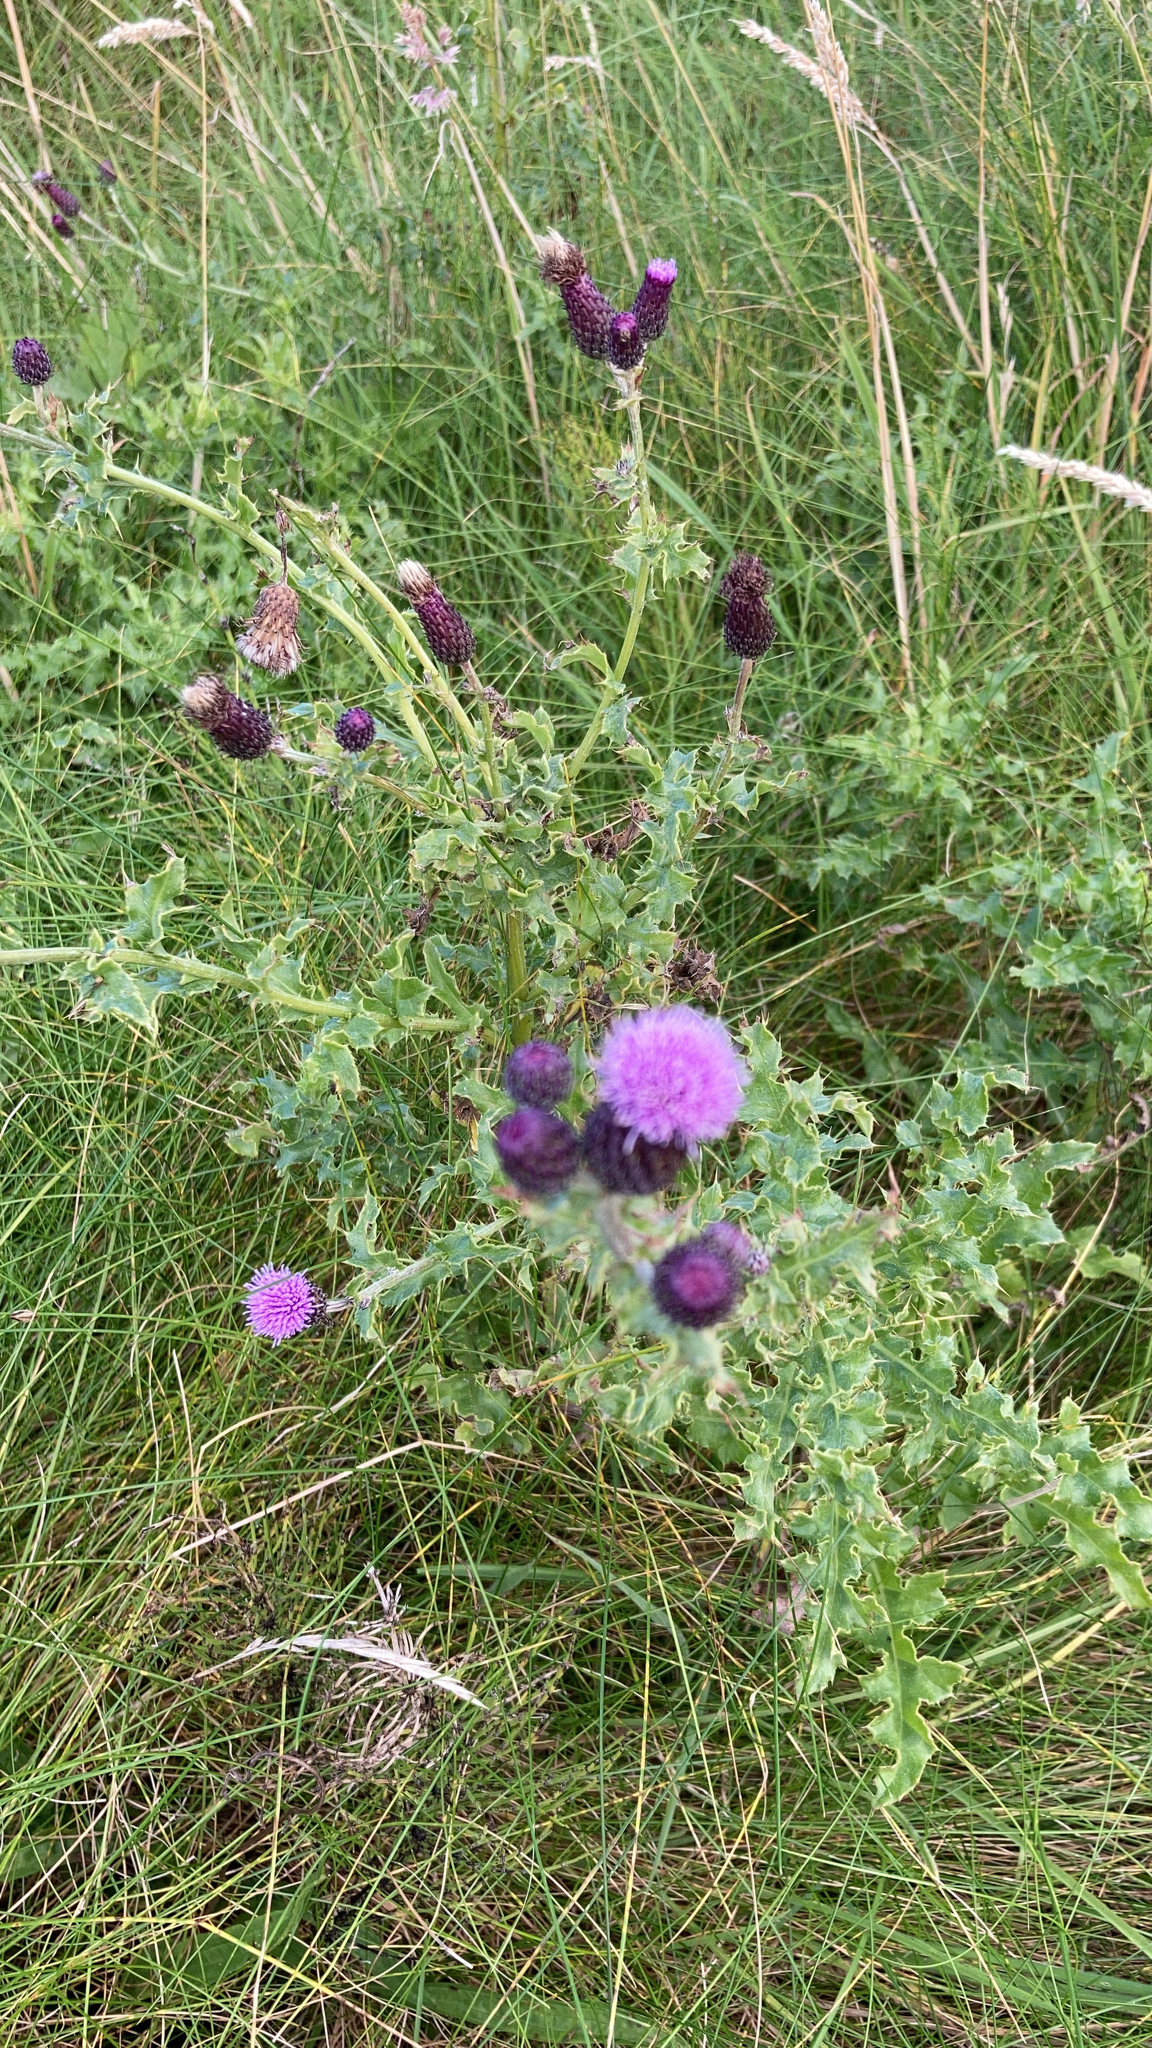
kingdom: Plantae
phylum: Tracheophyta
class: Magnoliopsida
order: Asterales
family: Asteraceae
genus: Cirsium
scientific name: Cirsium arvense
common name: Creeping thistle
